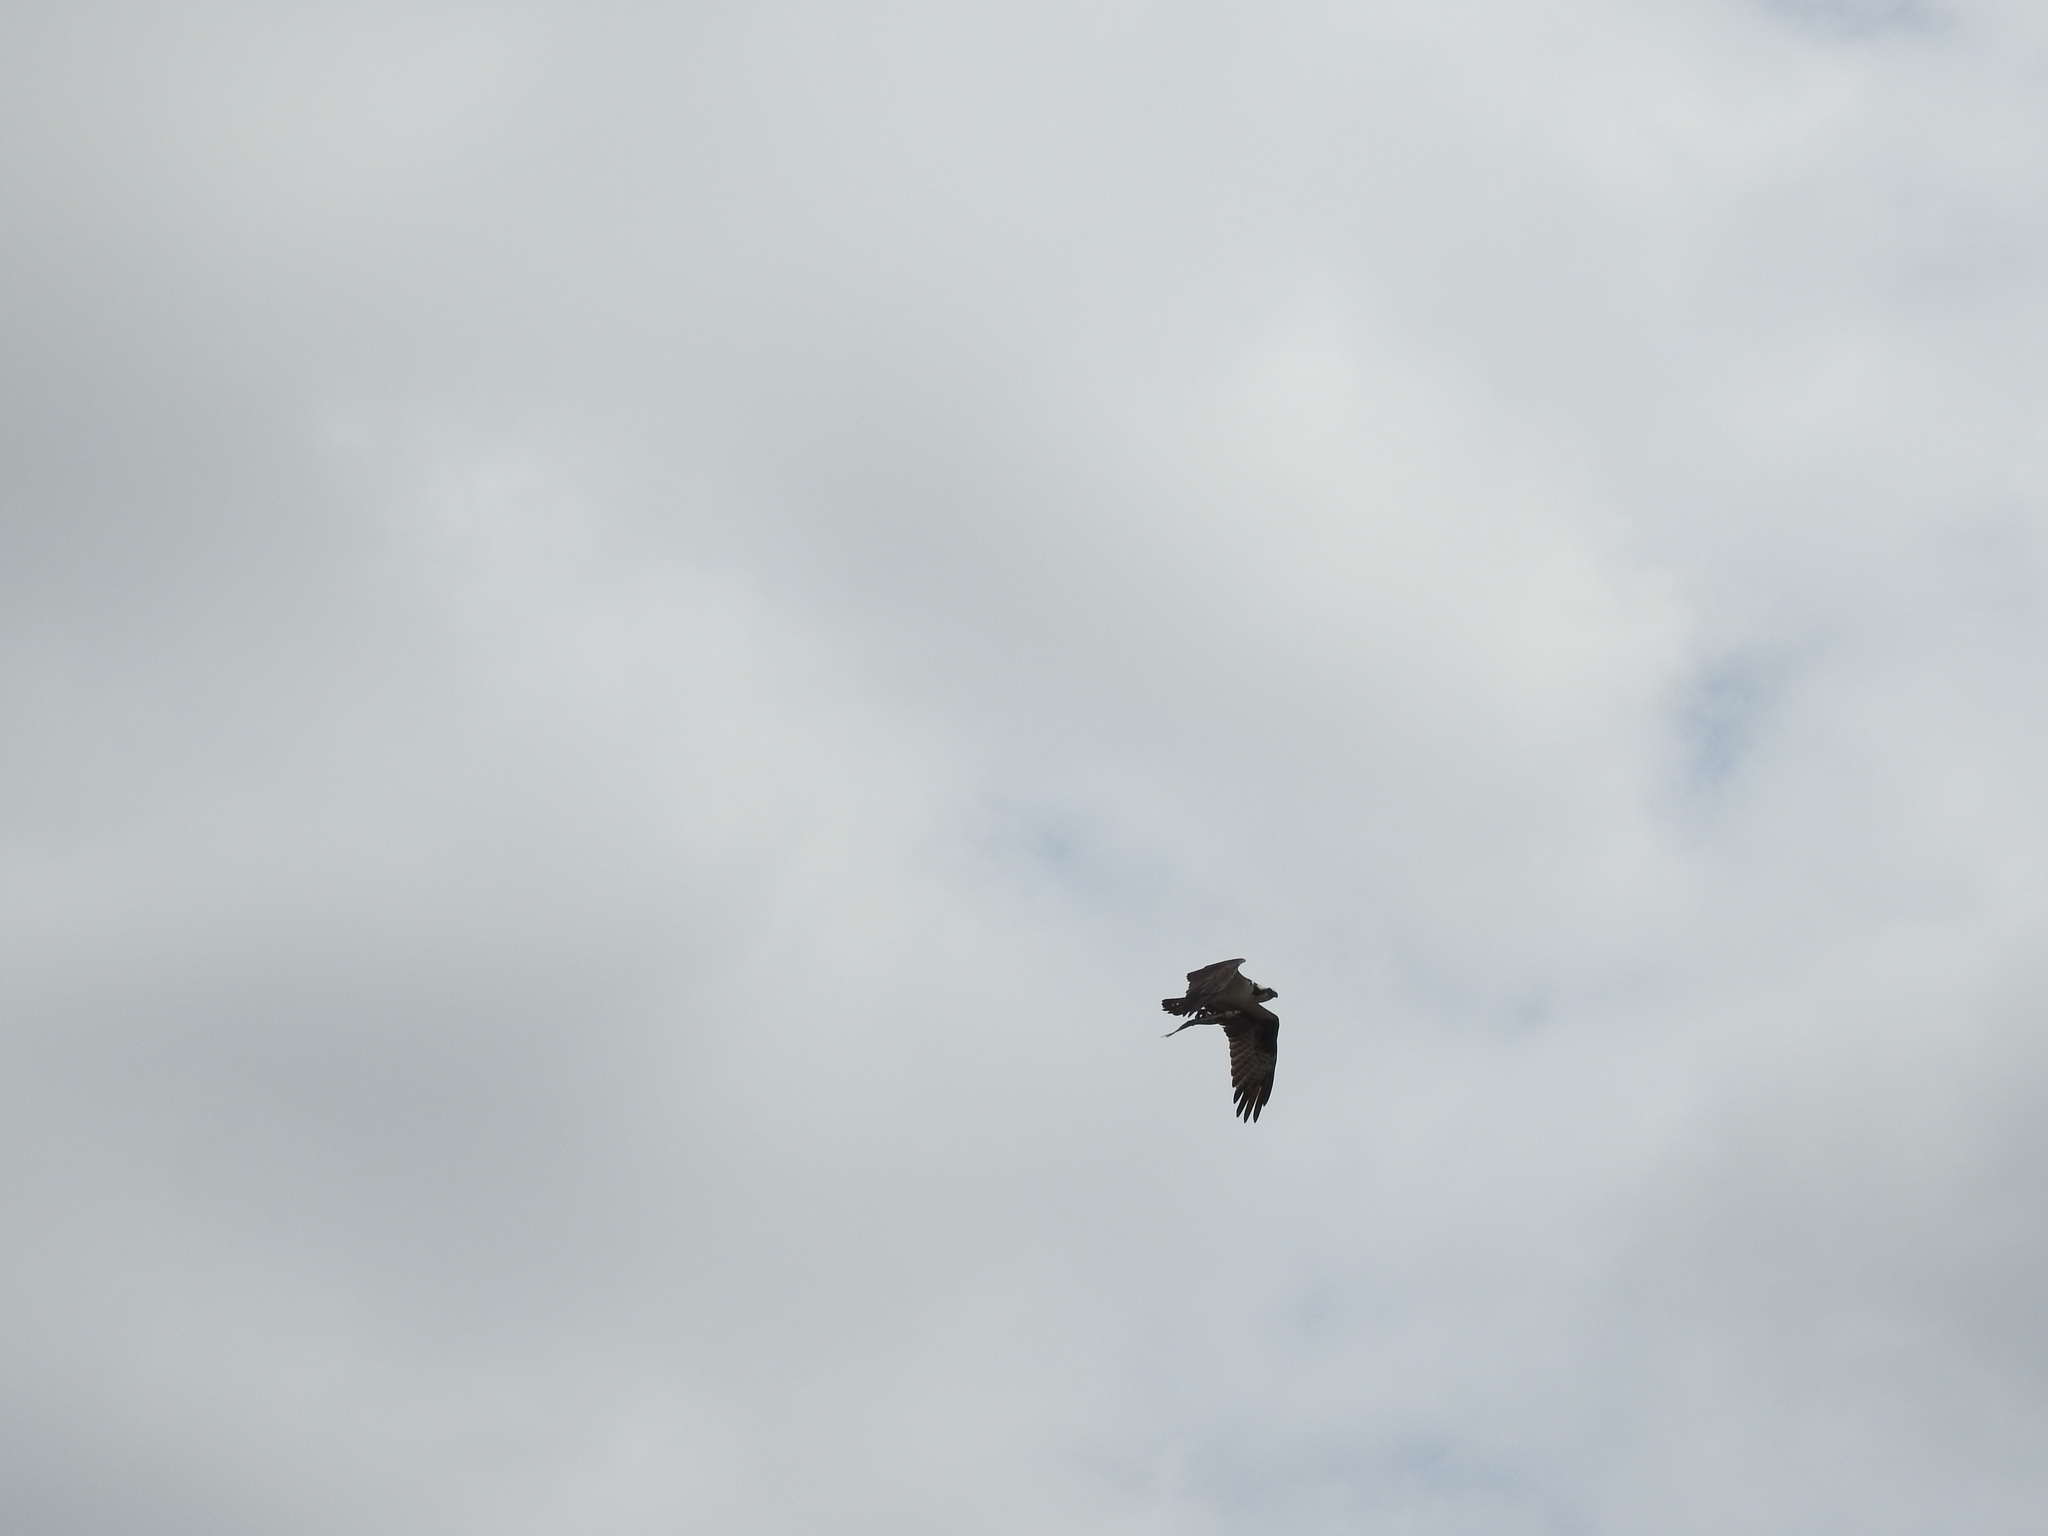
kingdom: Animalia
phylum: Chordata
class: Aves
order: Accipitriformes
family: Pandionidae
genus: Pandion
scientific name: Pandion haliaetus
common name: Osprey
